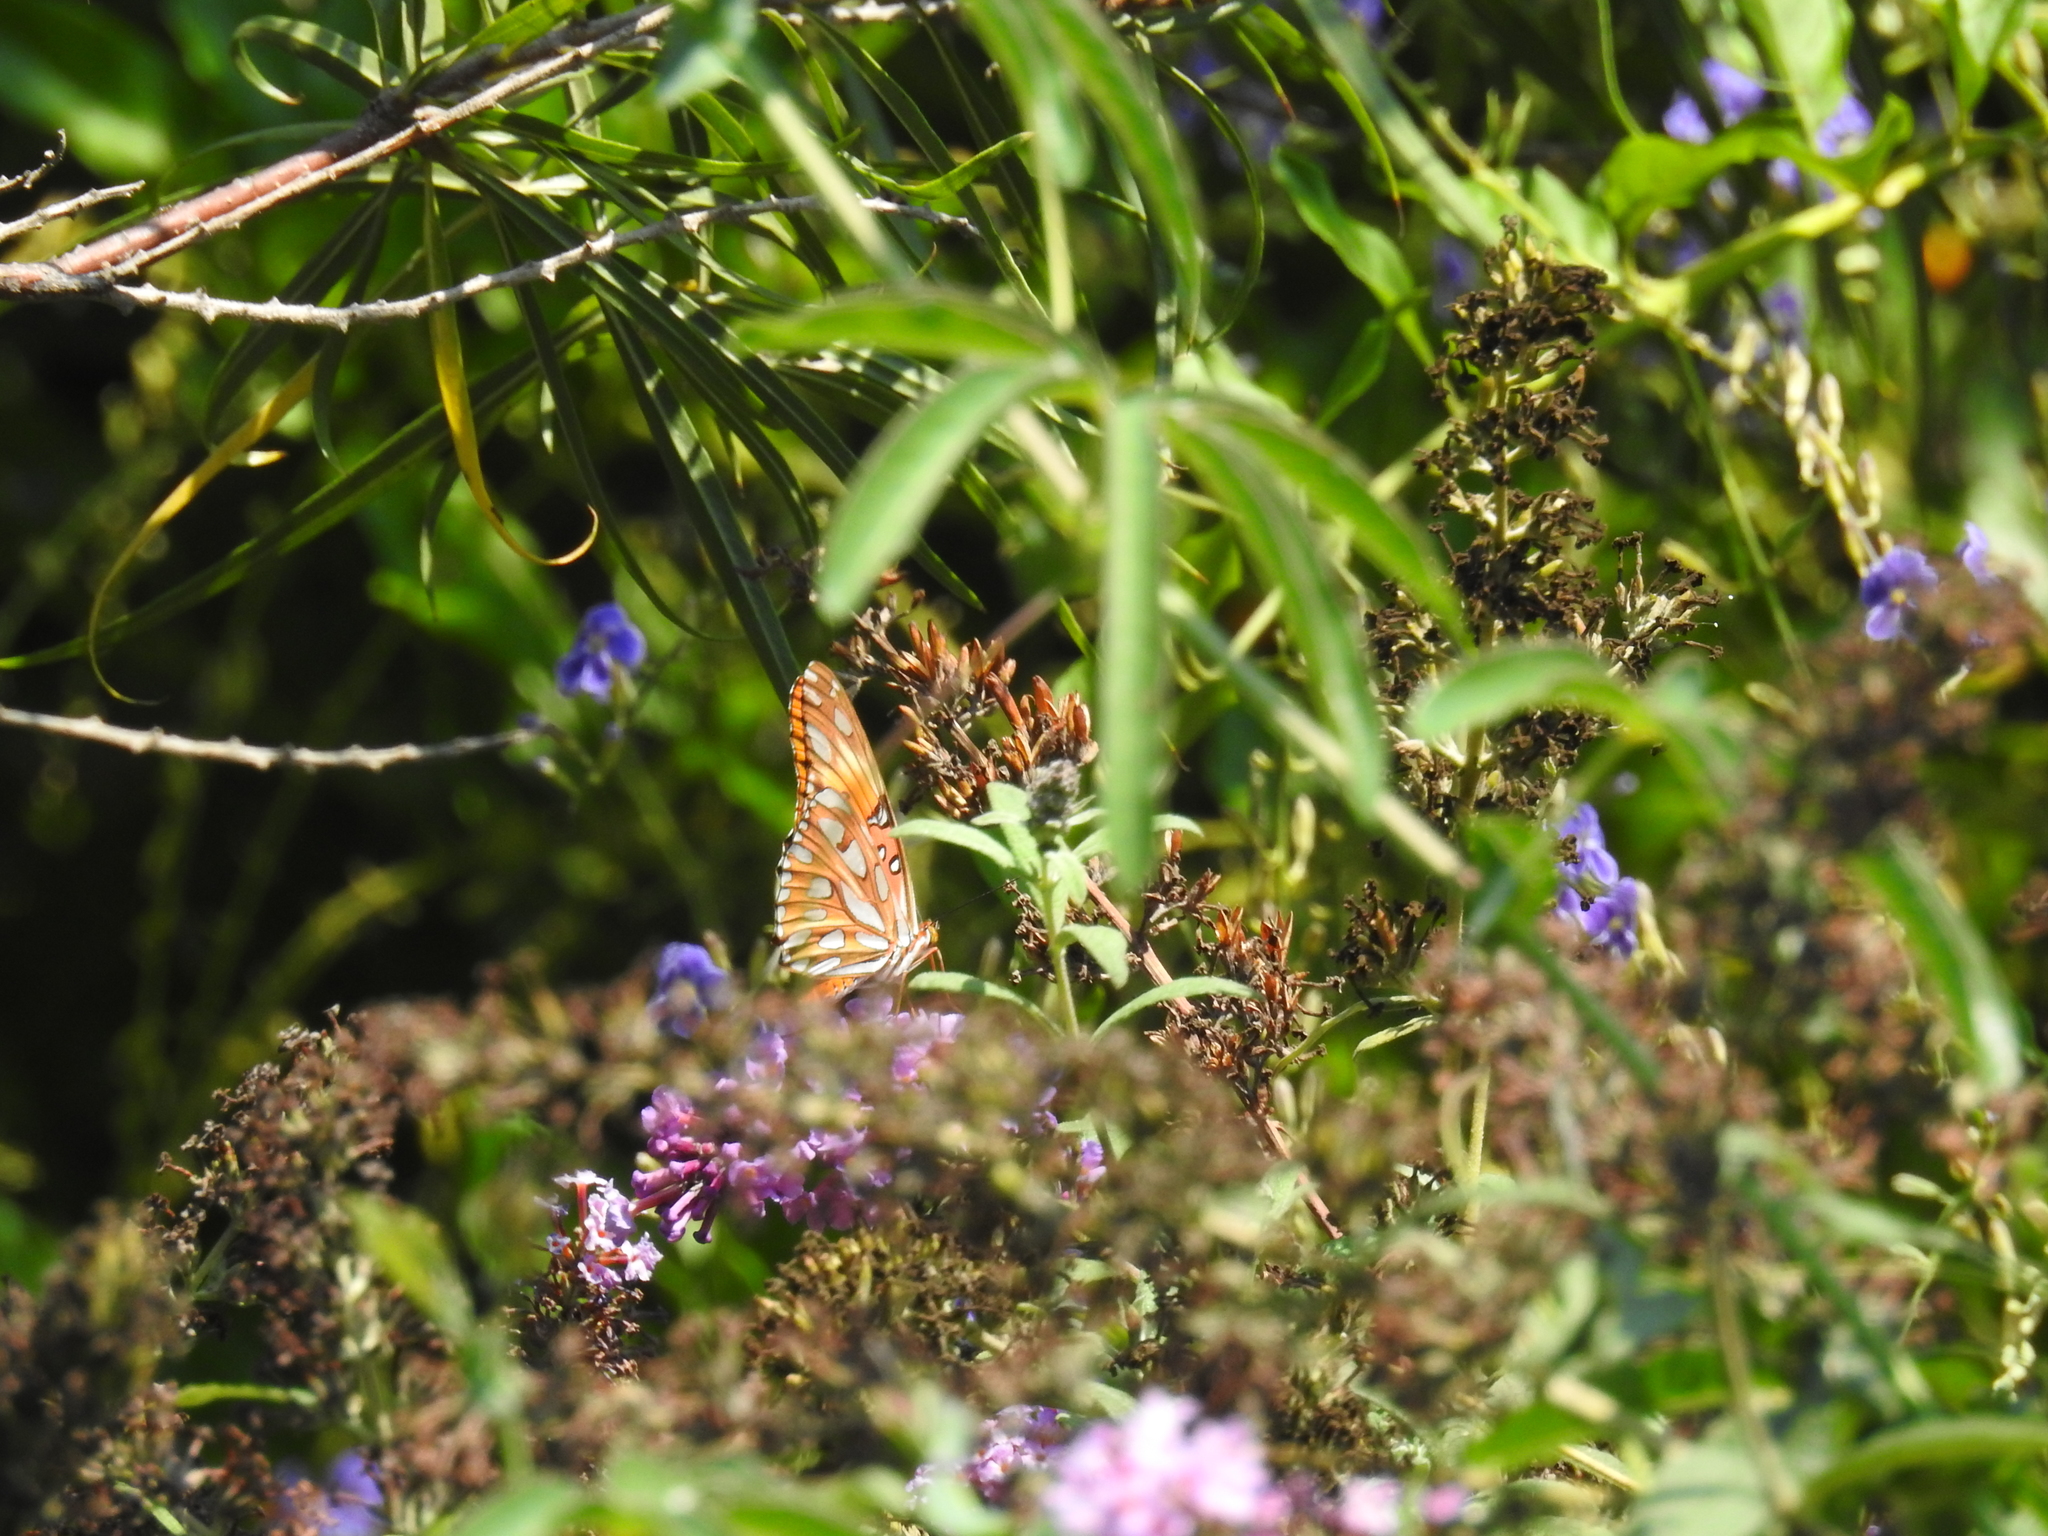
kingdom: Animalia
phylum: Arthropoda
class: Insecta
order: Lepidoptera
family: Nymphalidae
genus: Dione
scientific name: Dione vanillae
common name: Gulf fritillary
